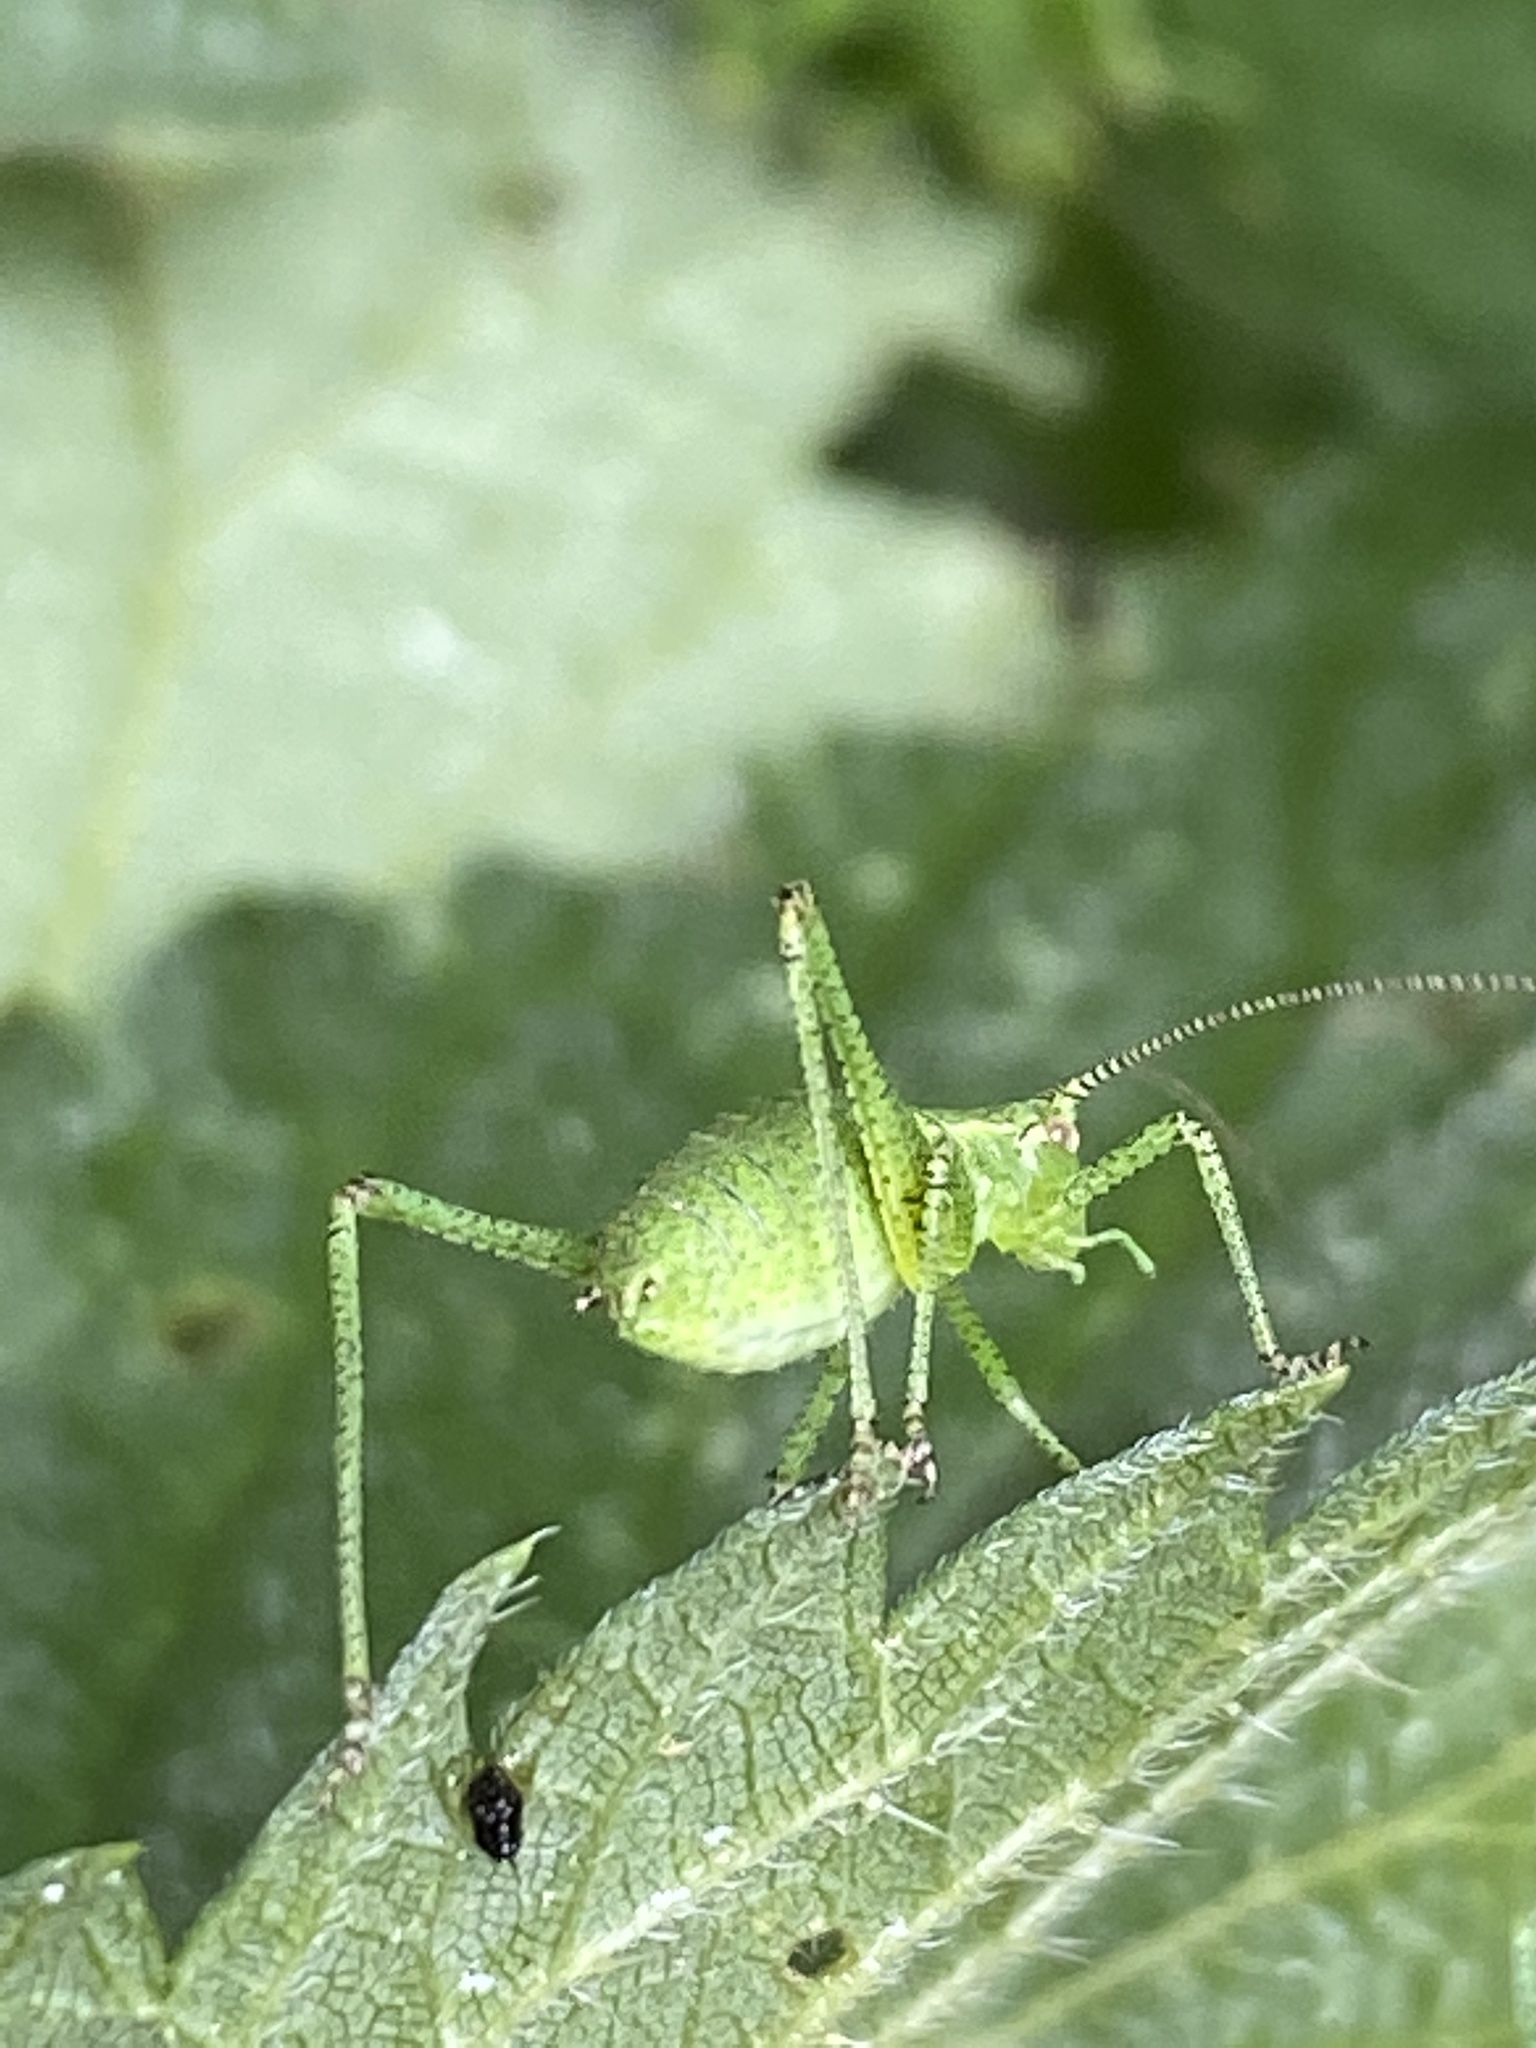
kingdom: Animalia
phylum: Arthropoda
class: Insecta
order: Orthoptera
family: Tettigoniidae
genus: Leptophyes
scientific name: Leptophyes punctatissima
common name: Speckled bush-cricket
